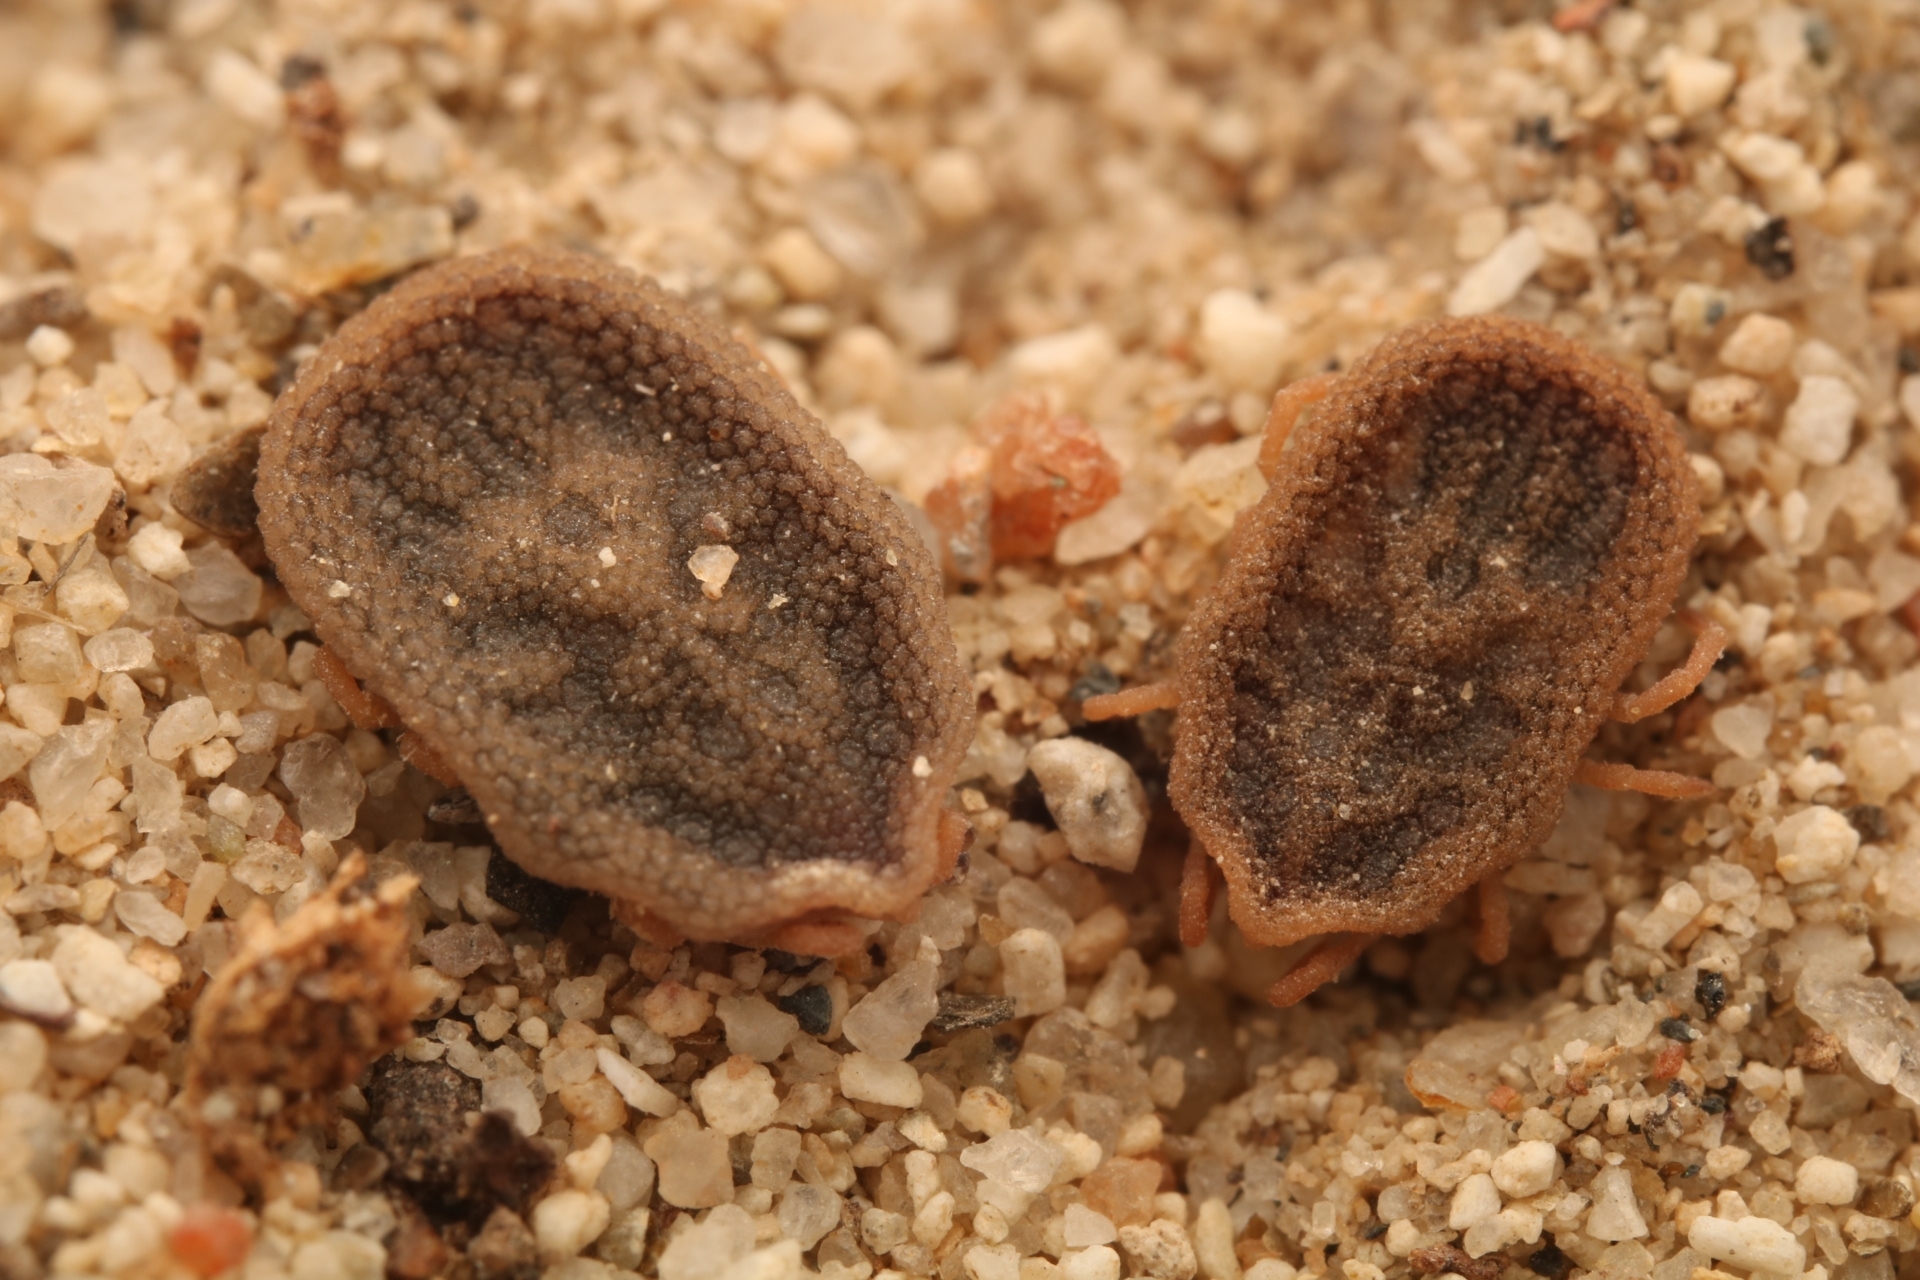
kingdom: Animalia
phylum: Arthropoda
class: Arachnida
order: Ixodida
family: Argasidae
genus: Carios
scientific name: Carios kelleyi
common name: Bat tick
